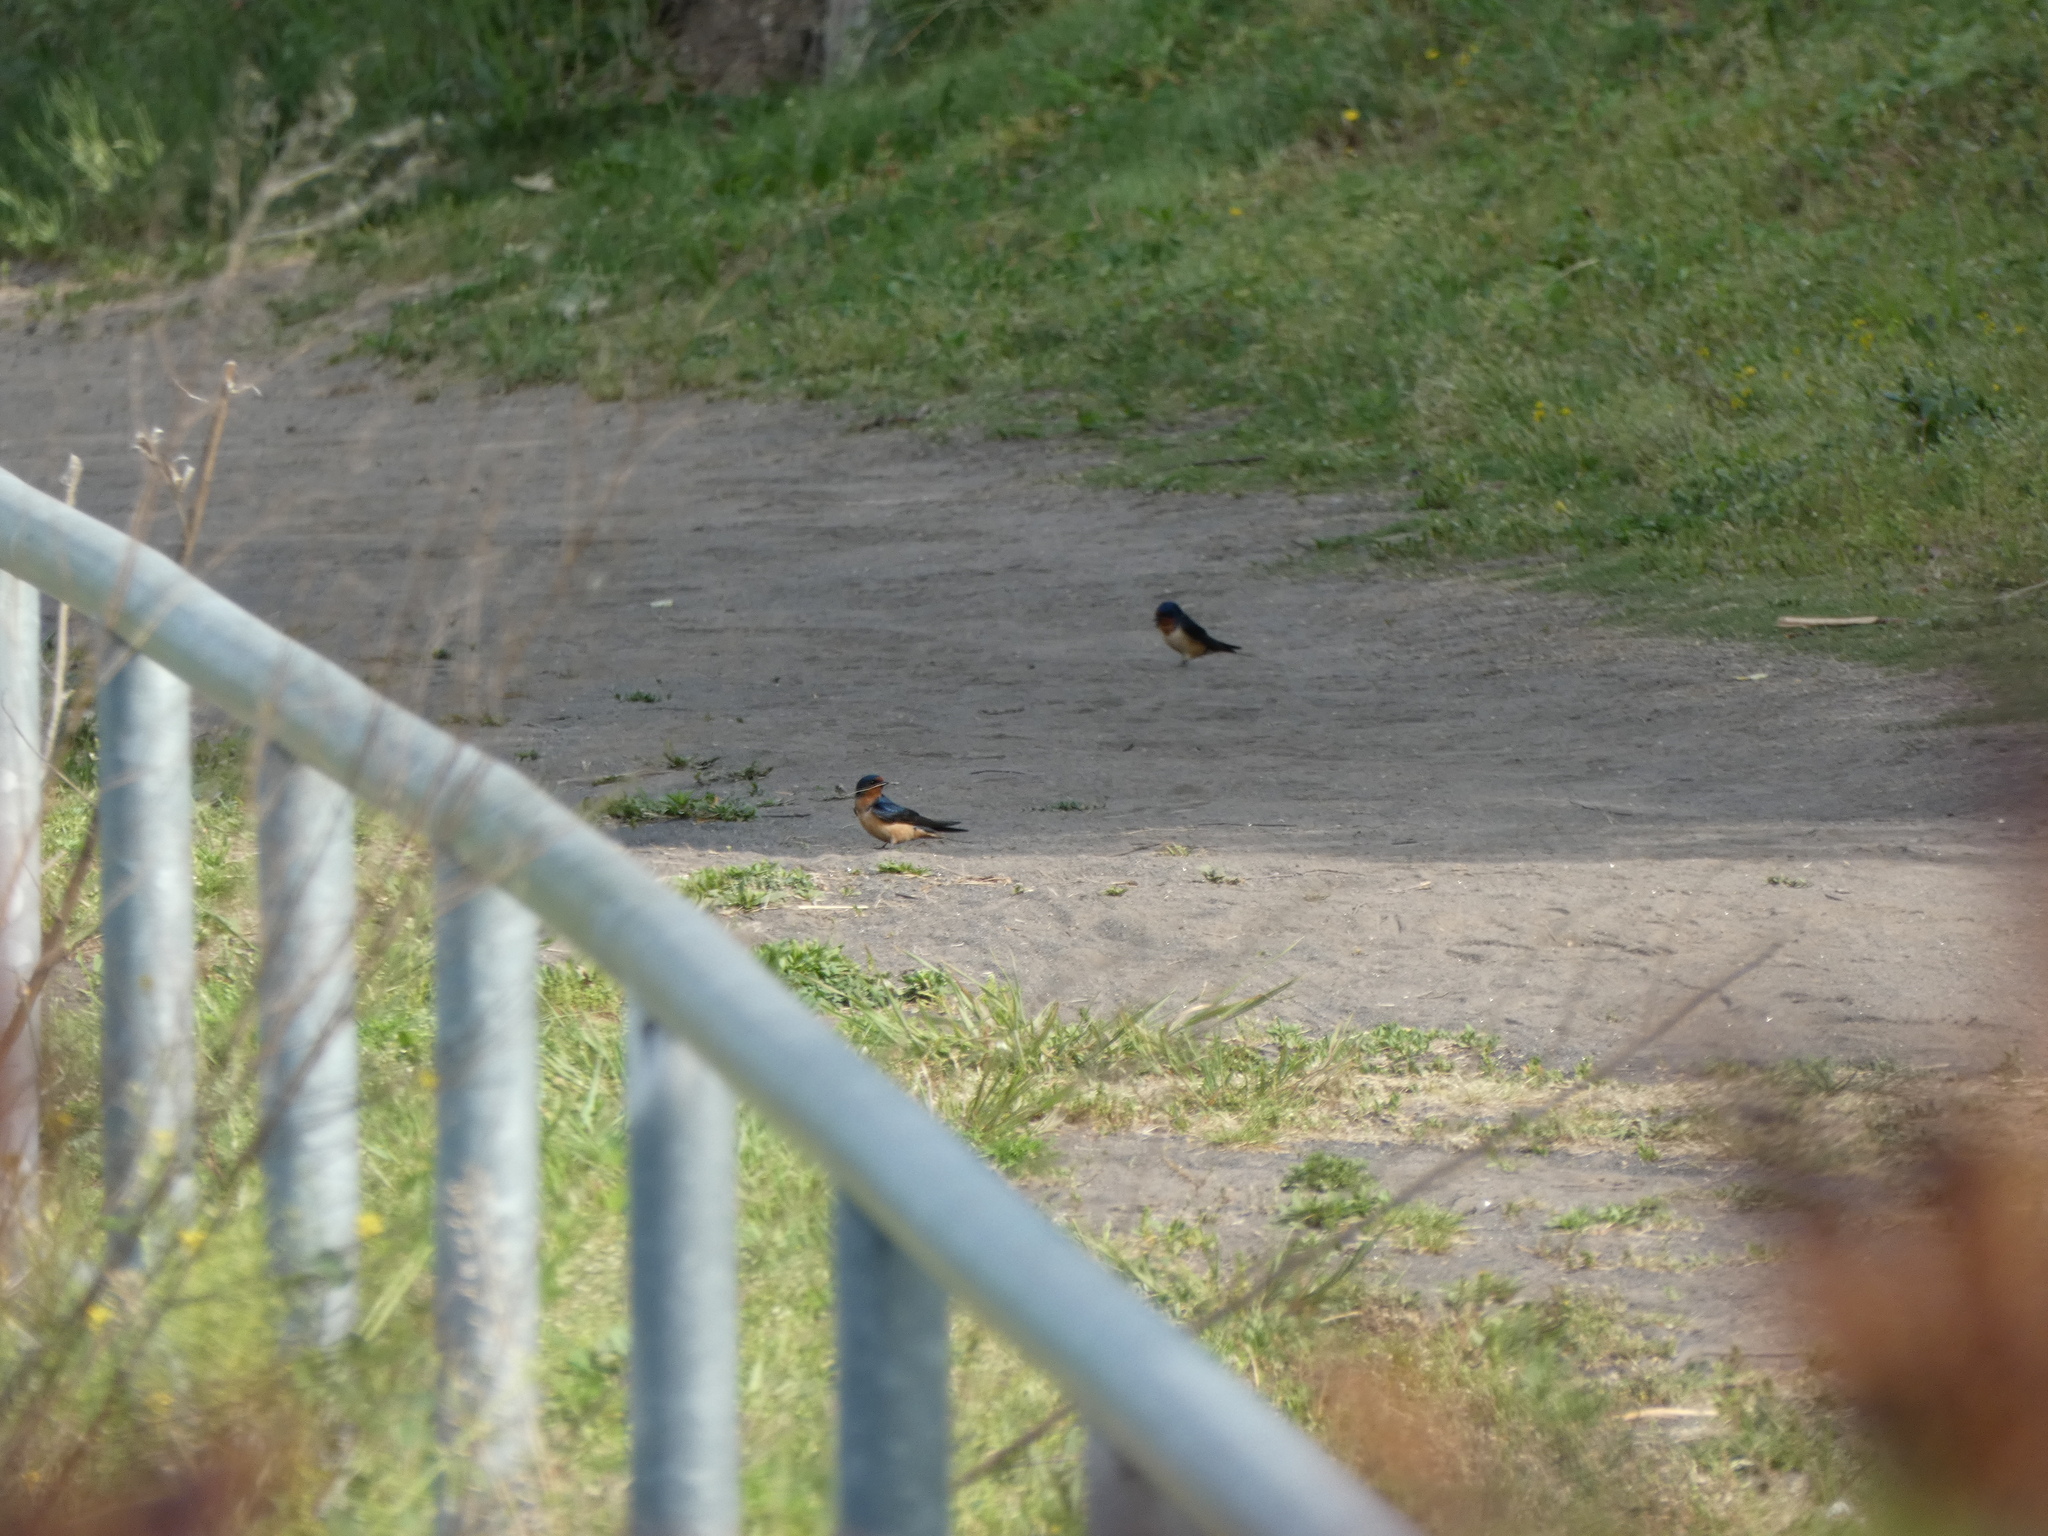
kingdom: Animalia
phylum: Chordata
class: Aves
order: Passeriformes
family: Hirundinidae
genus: Hirundo
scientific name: Hirundo rustica
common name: Barn swallow
